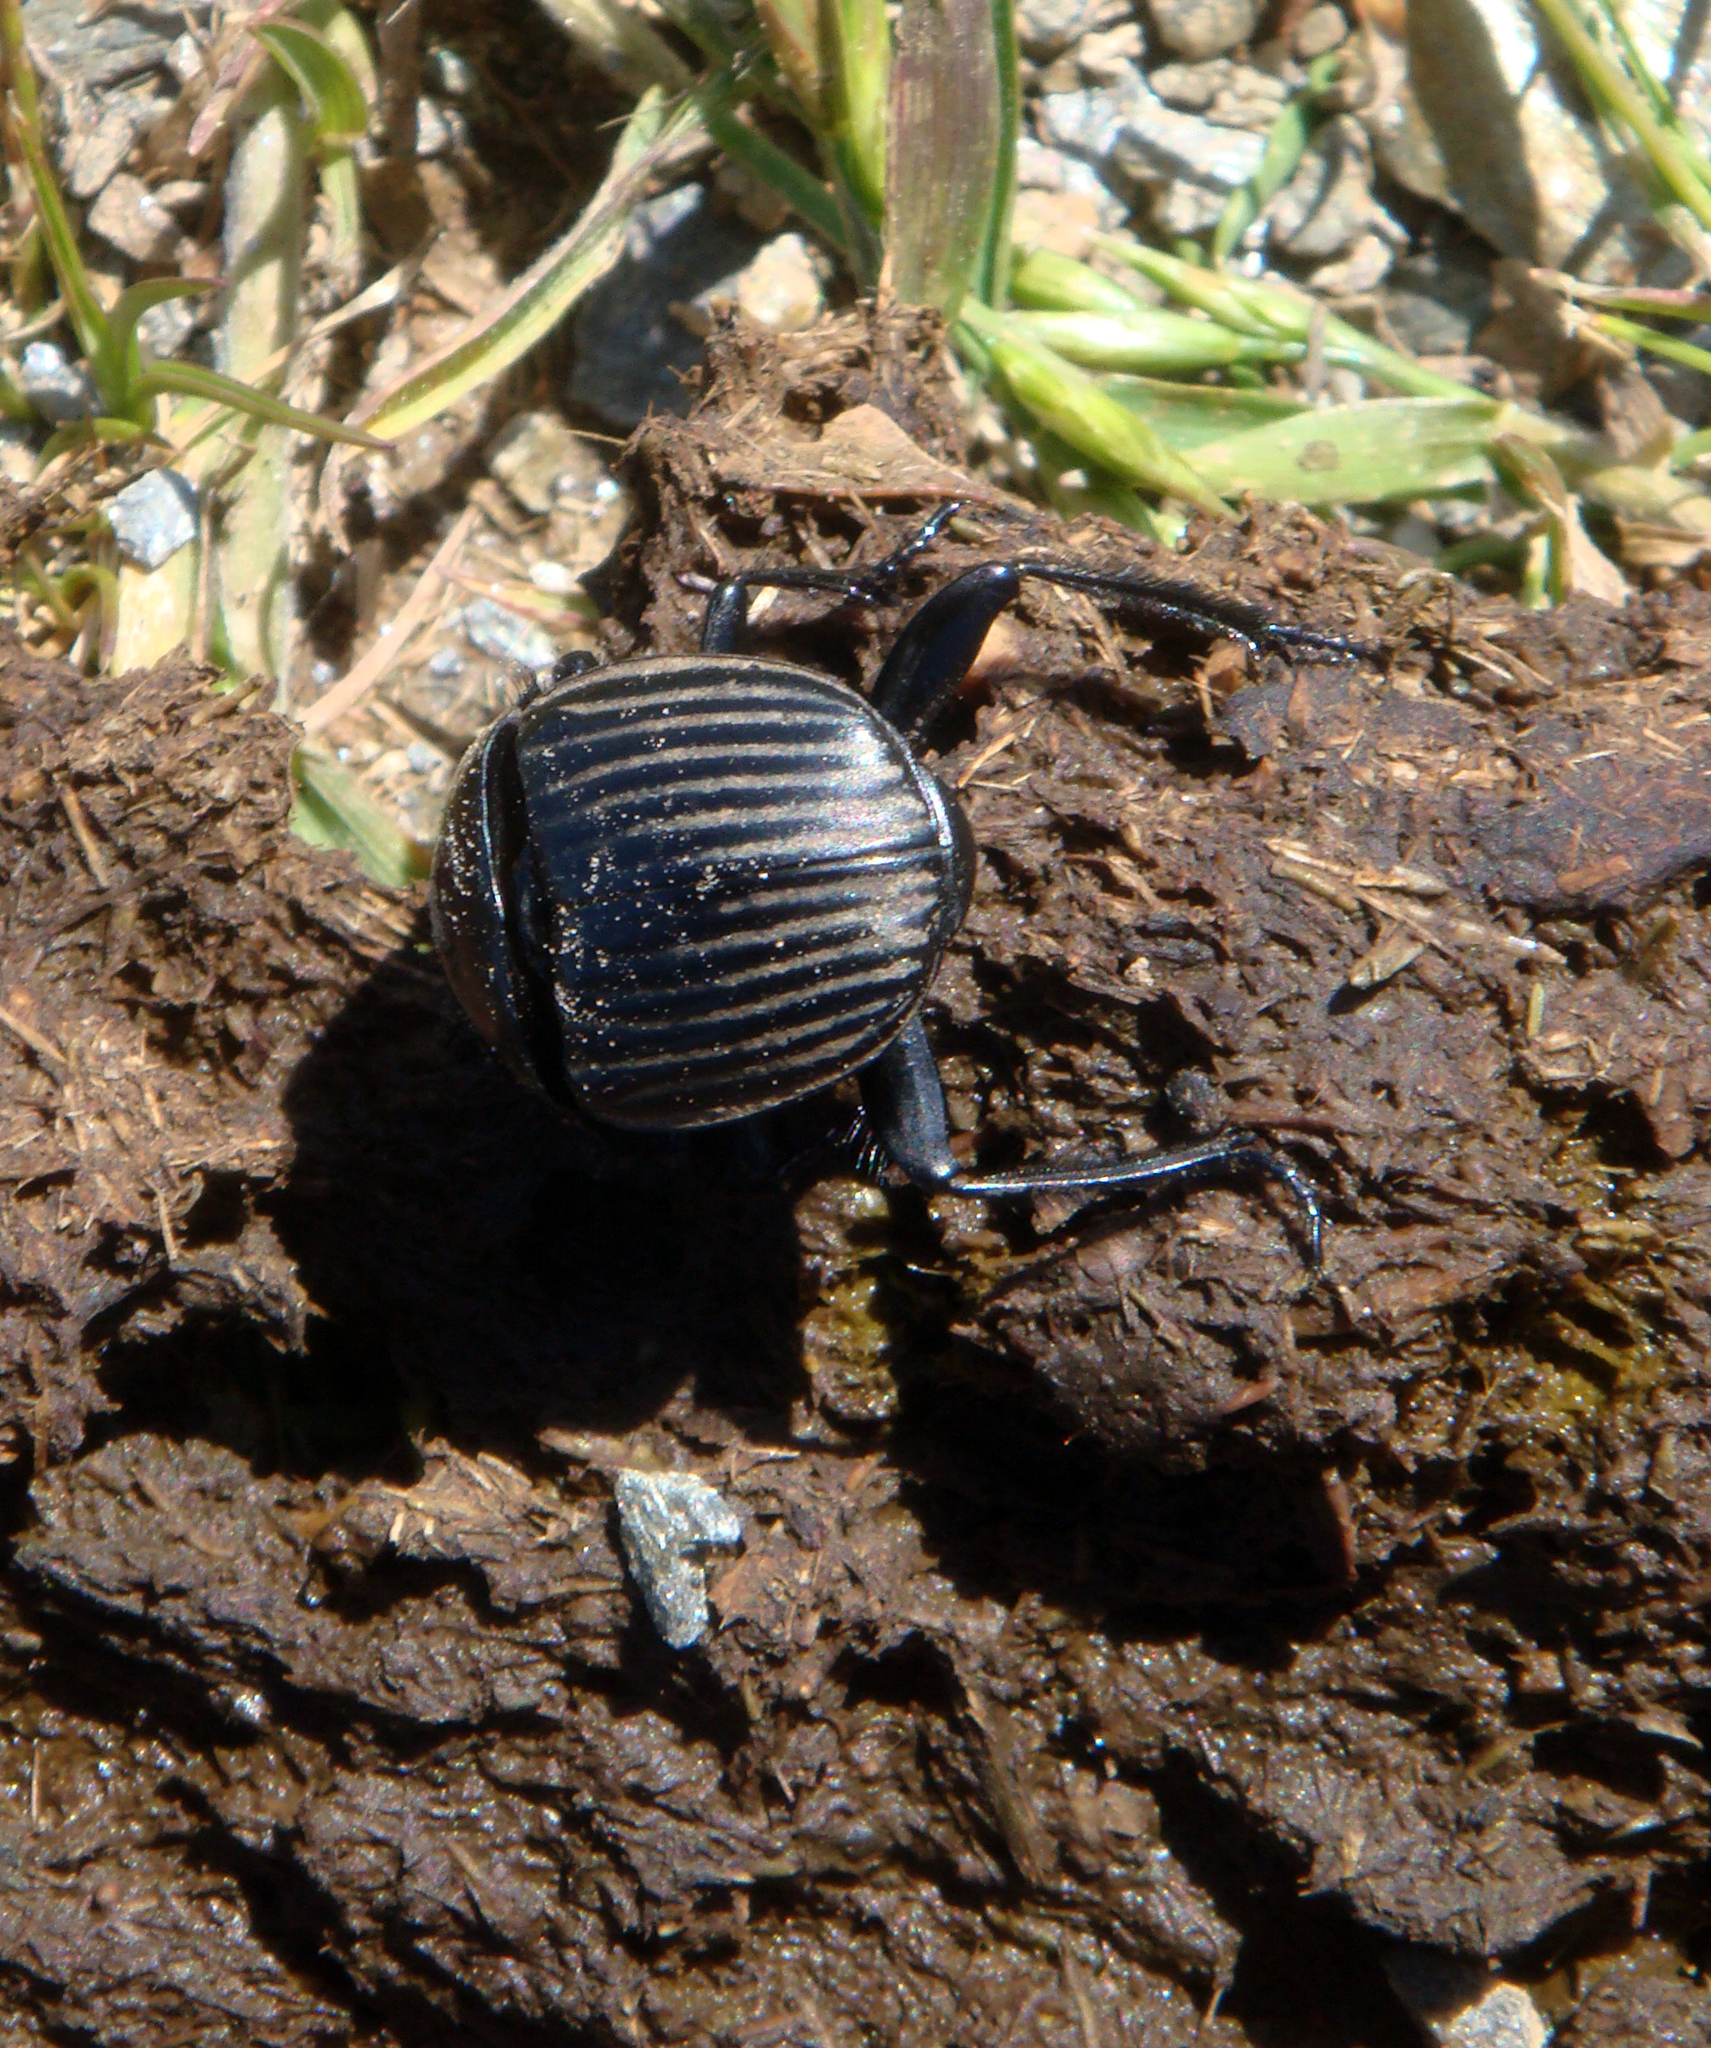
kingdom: Animalia
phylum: Arthropoda
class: Insecta
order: Coleoptera
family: Scarabaeidae
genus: Ateuchetus
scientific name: Ateuchetus laticollis
